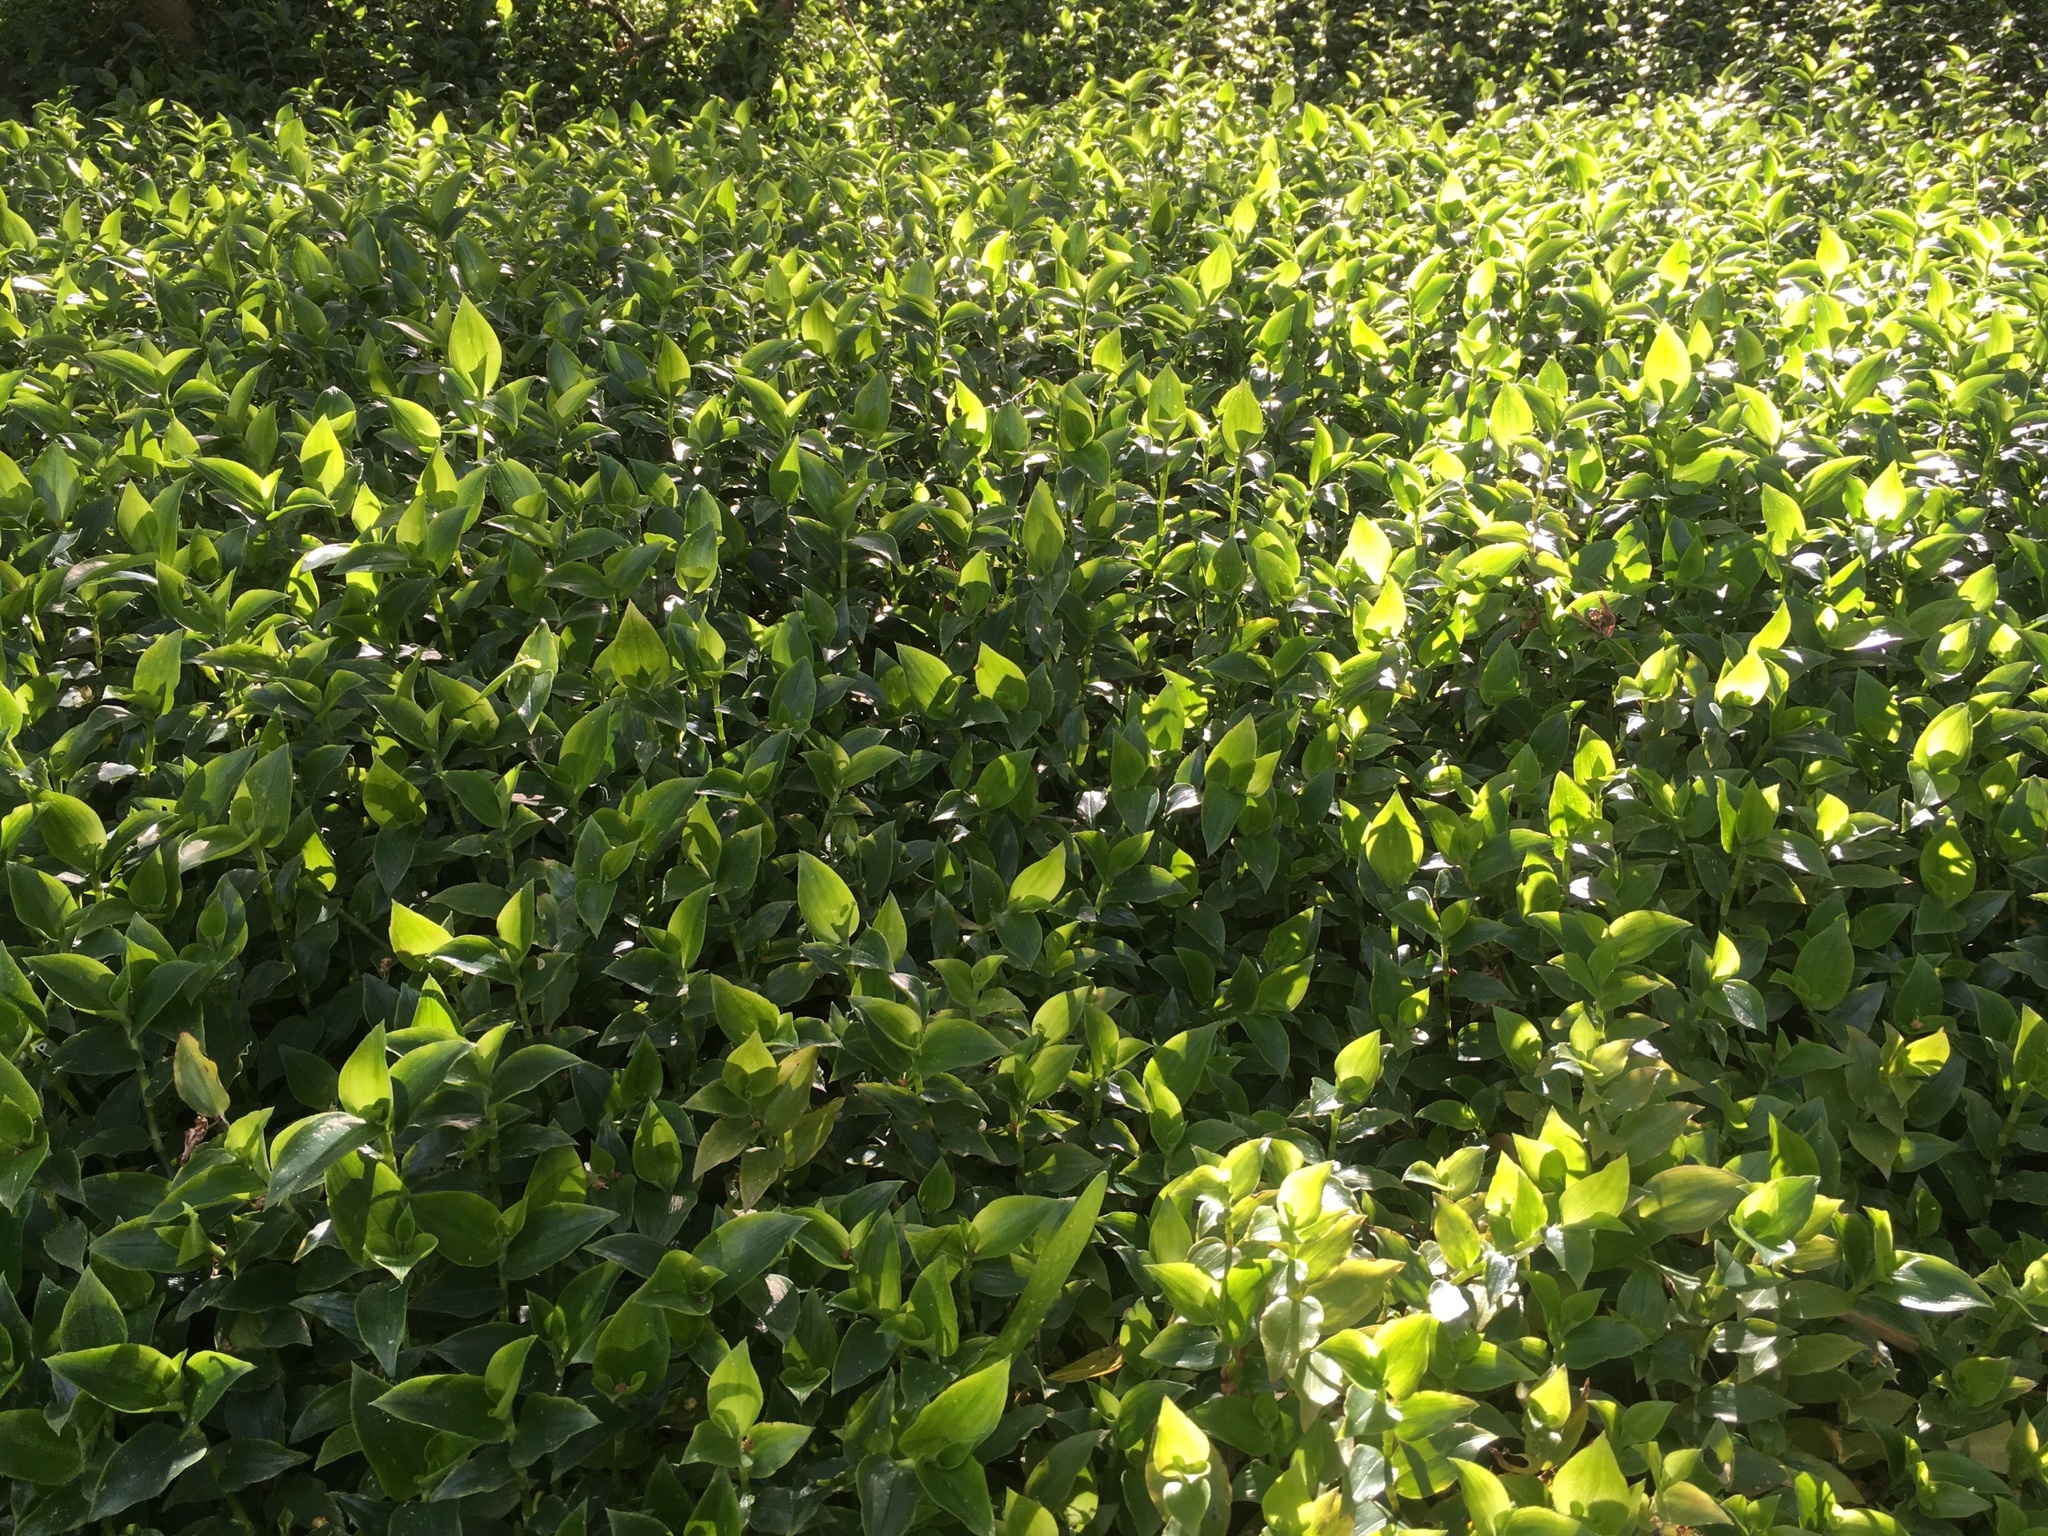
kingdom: Plantae
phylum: Tracheophyta
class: Liliopsida
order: Commelinales
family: Commelinaceae
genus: Tradescantia
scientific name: Tradescantia fluminensis
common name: Wandering-jew
